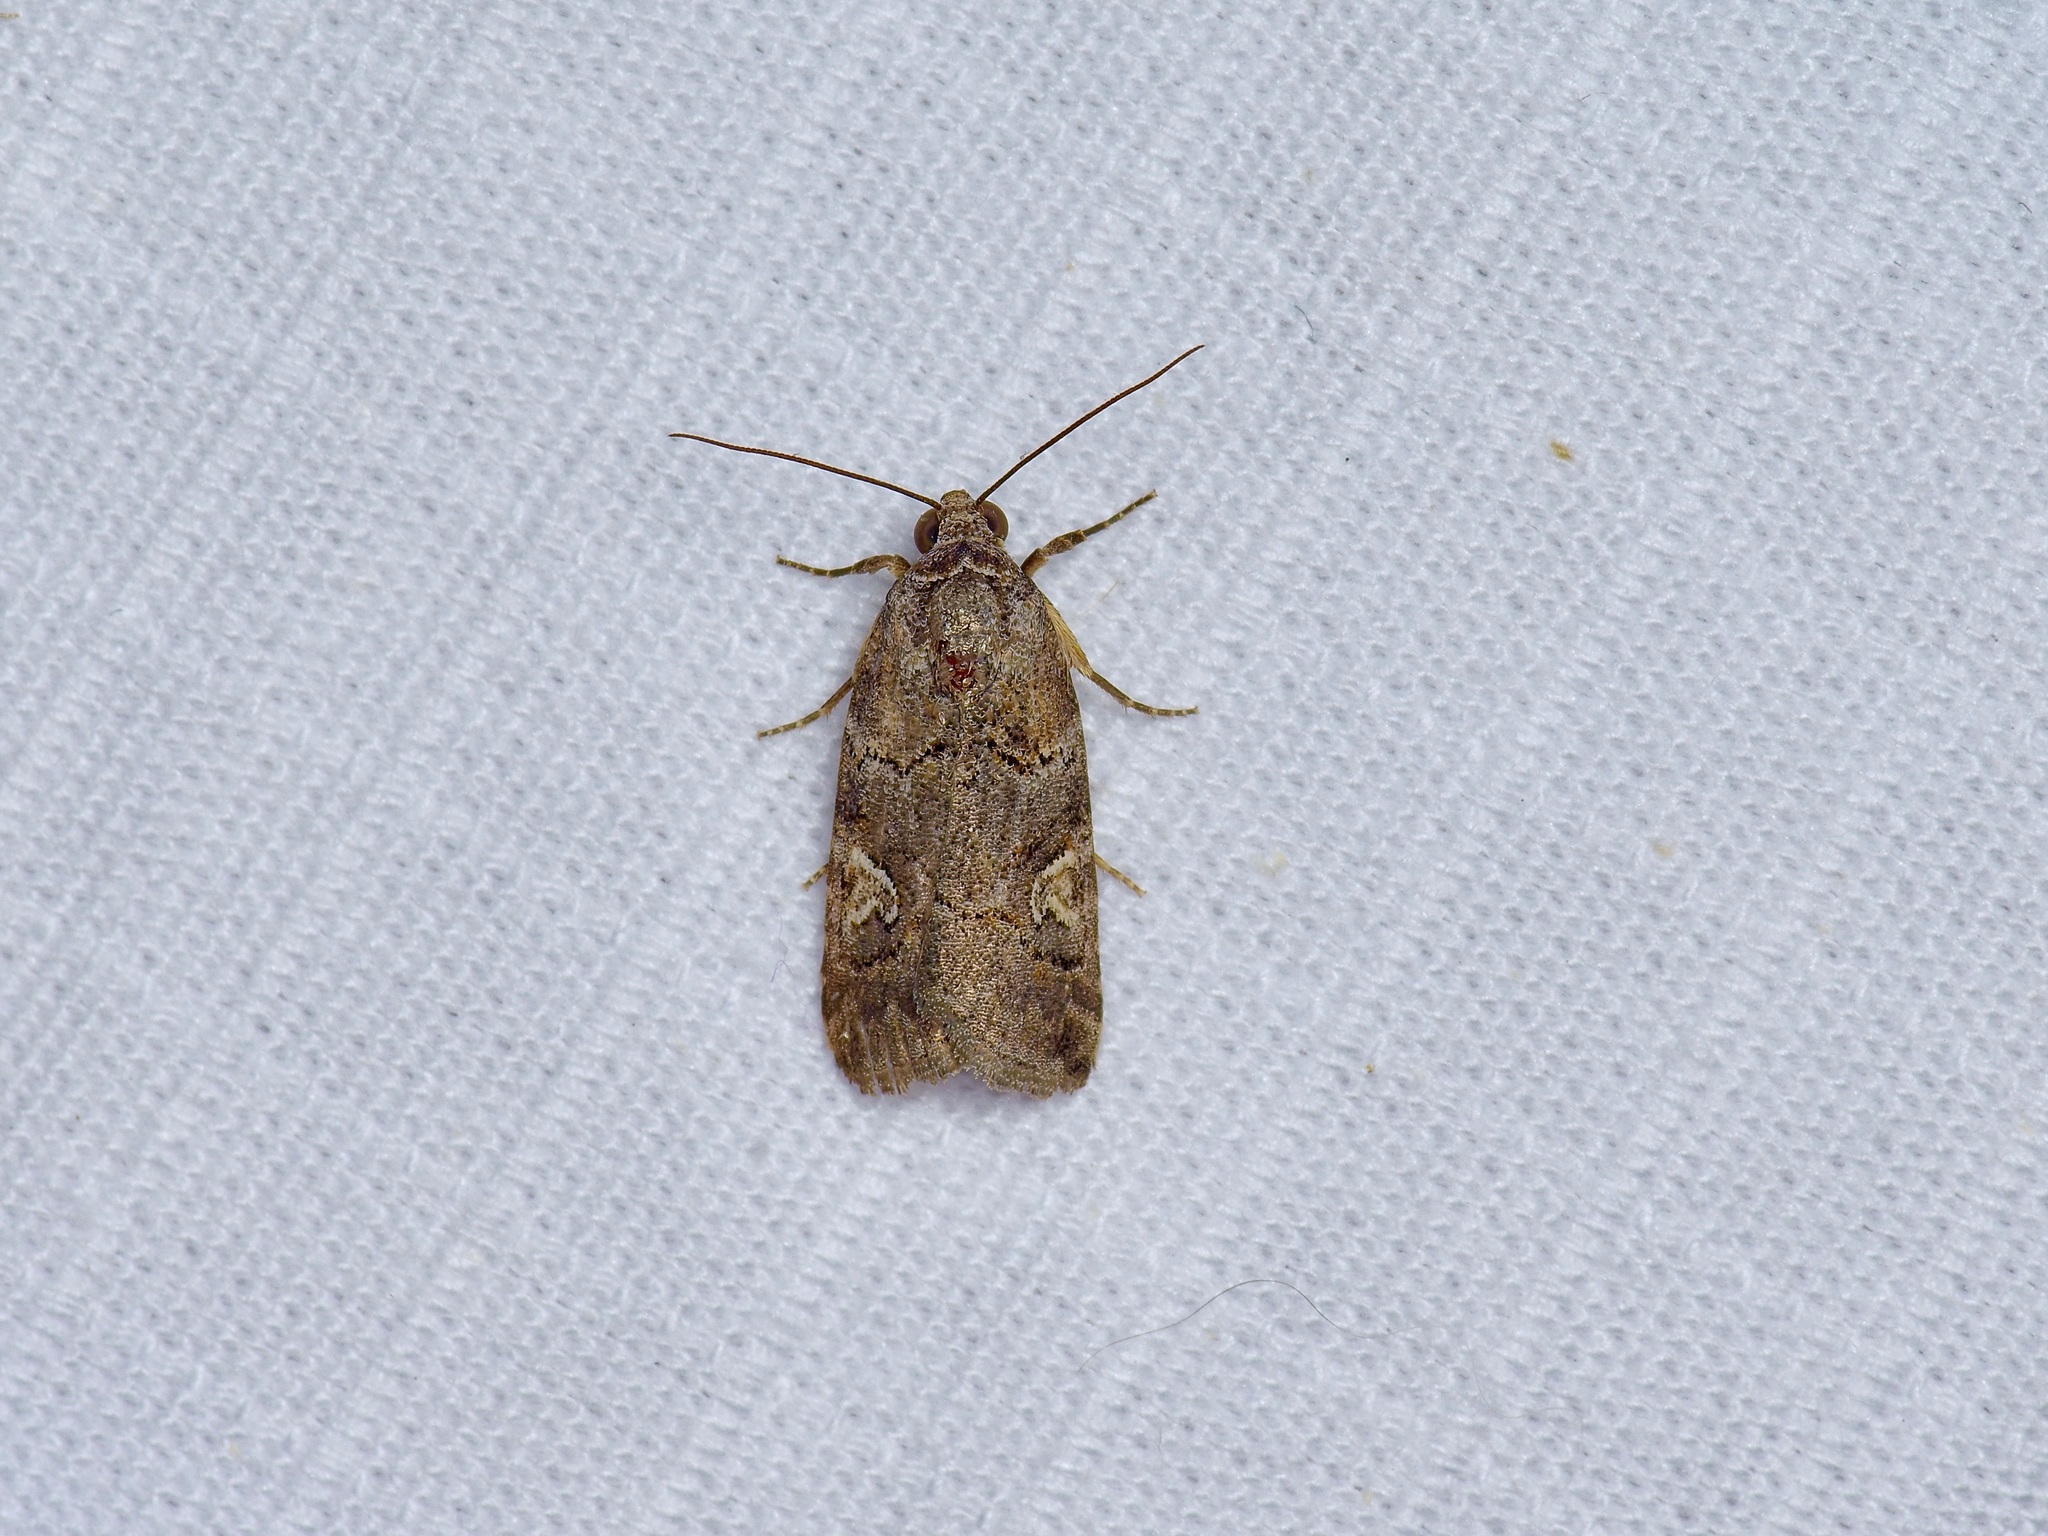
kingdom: Animalia
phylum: Arthropoda
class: Insecta
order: Lepidoptera
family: Noctuidae
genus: Metaponpneumata
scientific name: Metaponpneumata rogenhoferi
